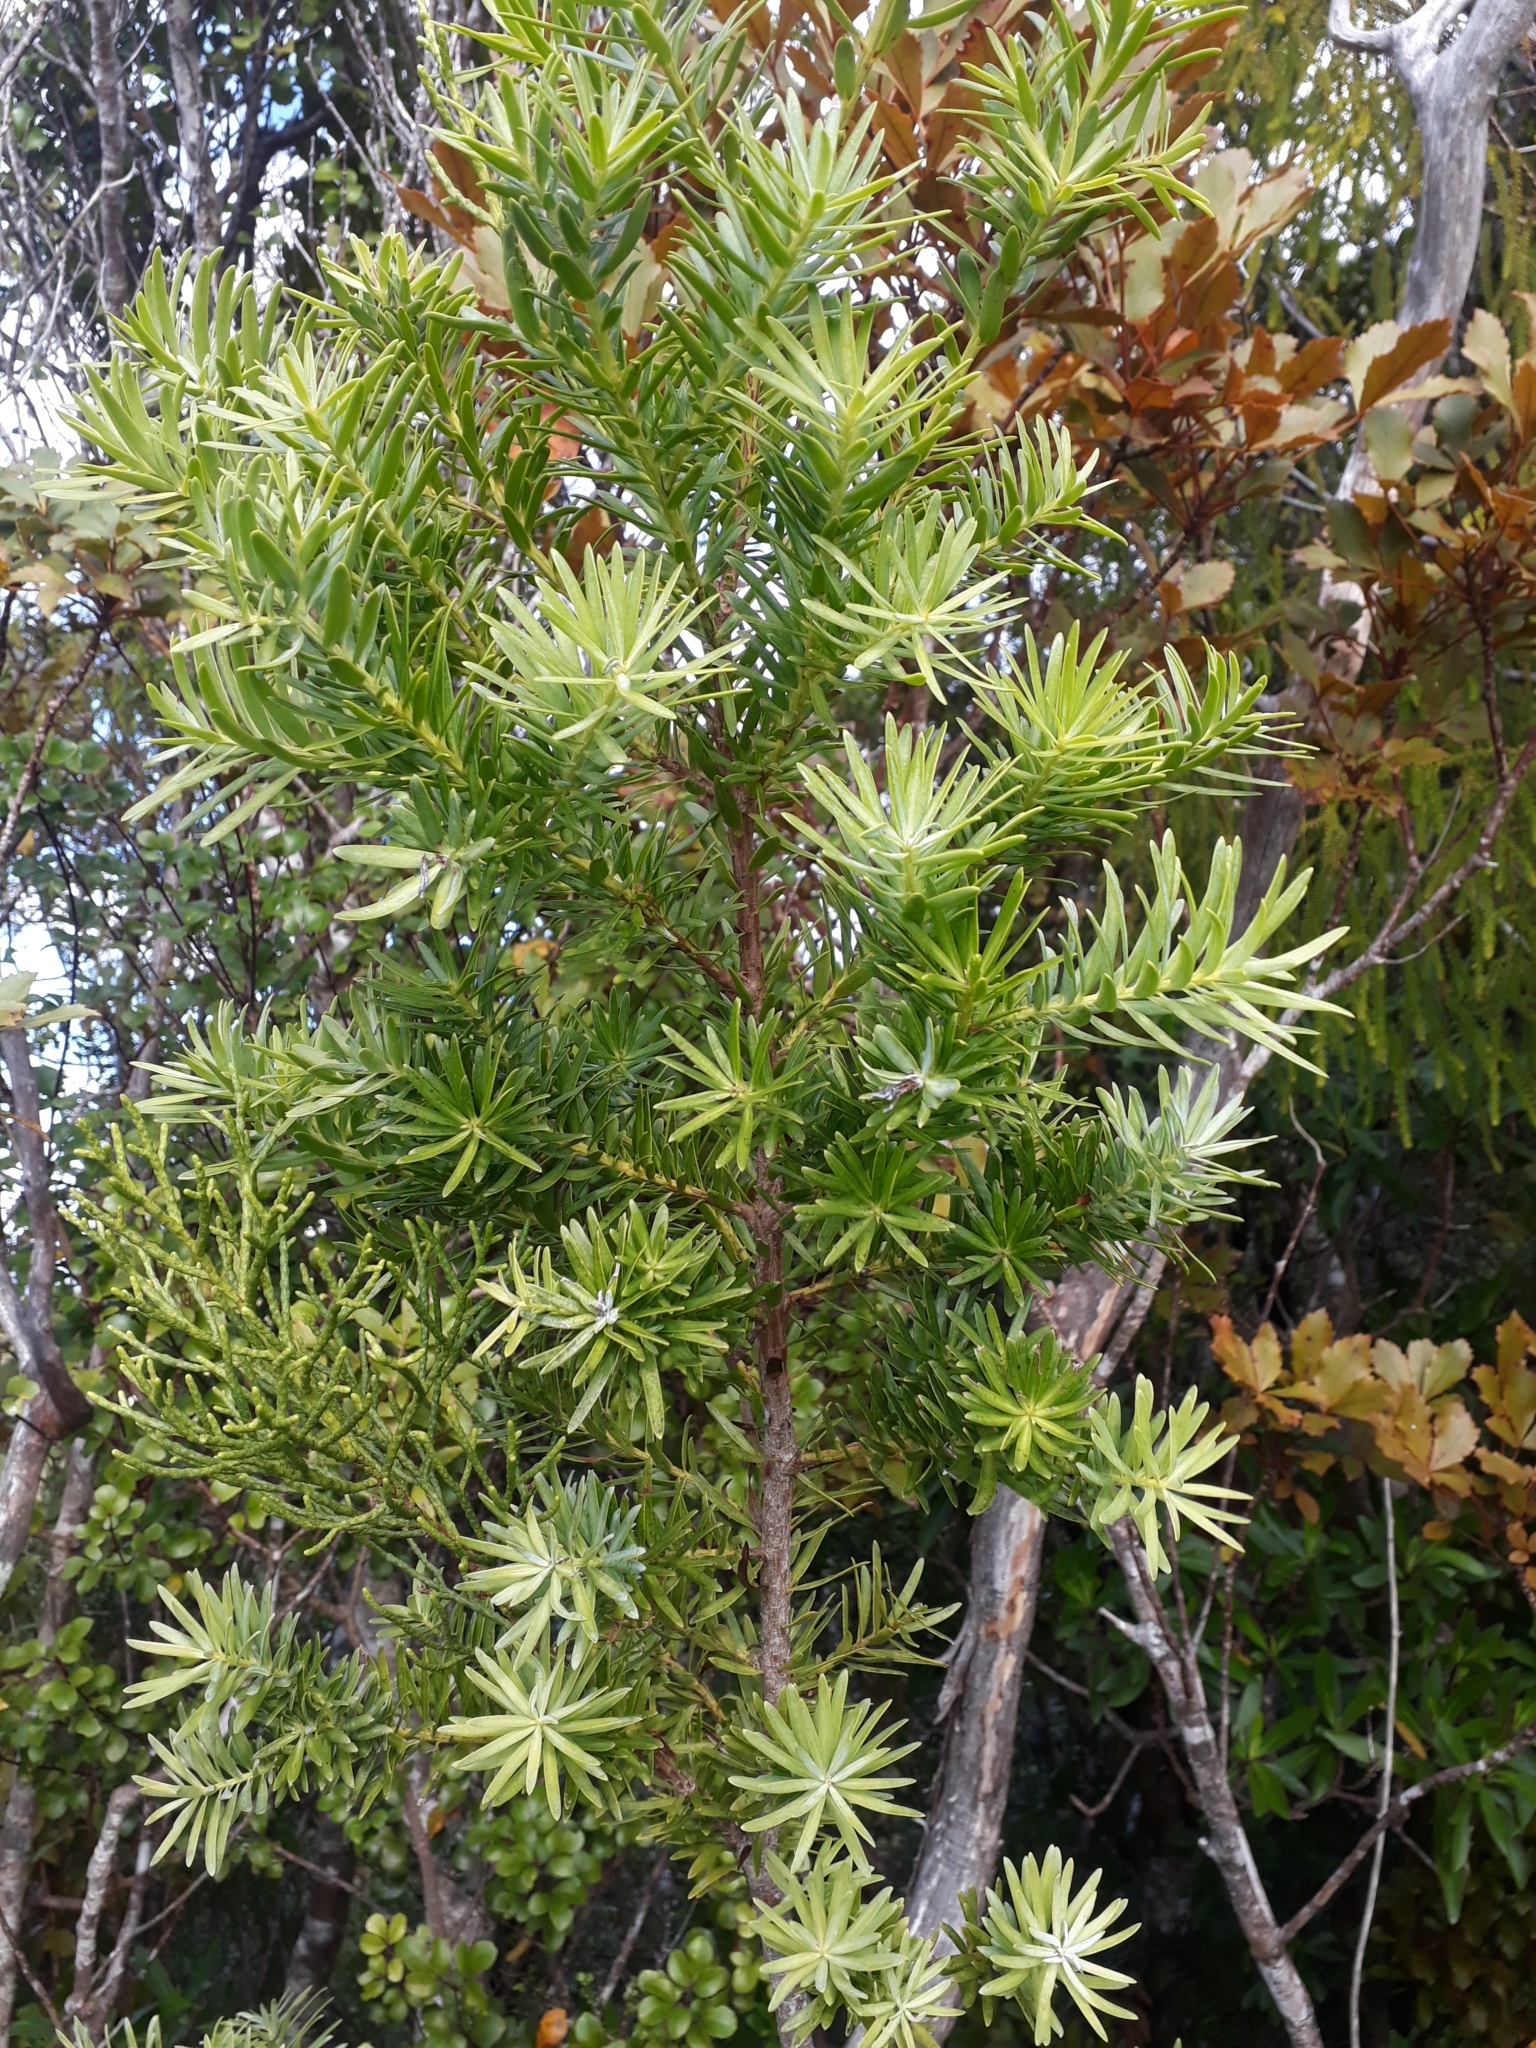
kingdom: Plantae
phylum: Tracheophyta
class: Pinopsida
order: Pinales
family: Podocarpaceae
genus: Halocarpus
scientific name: Halocarpus kirkii
